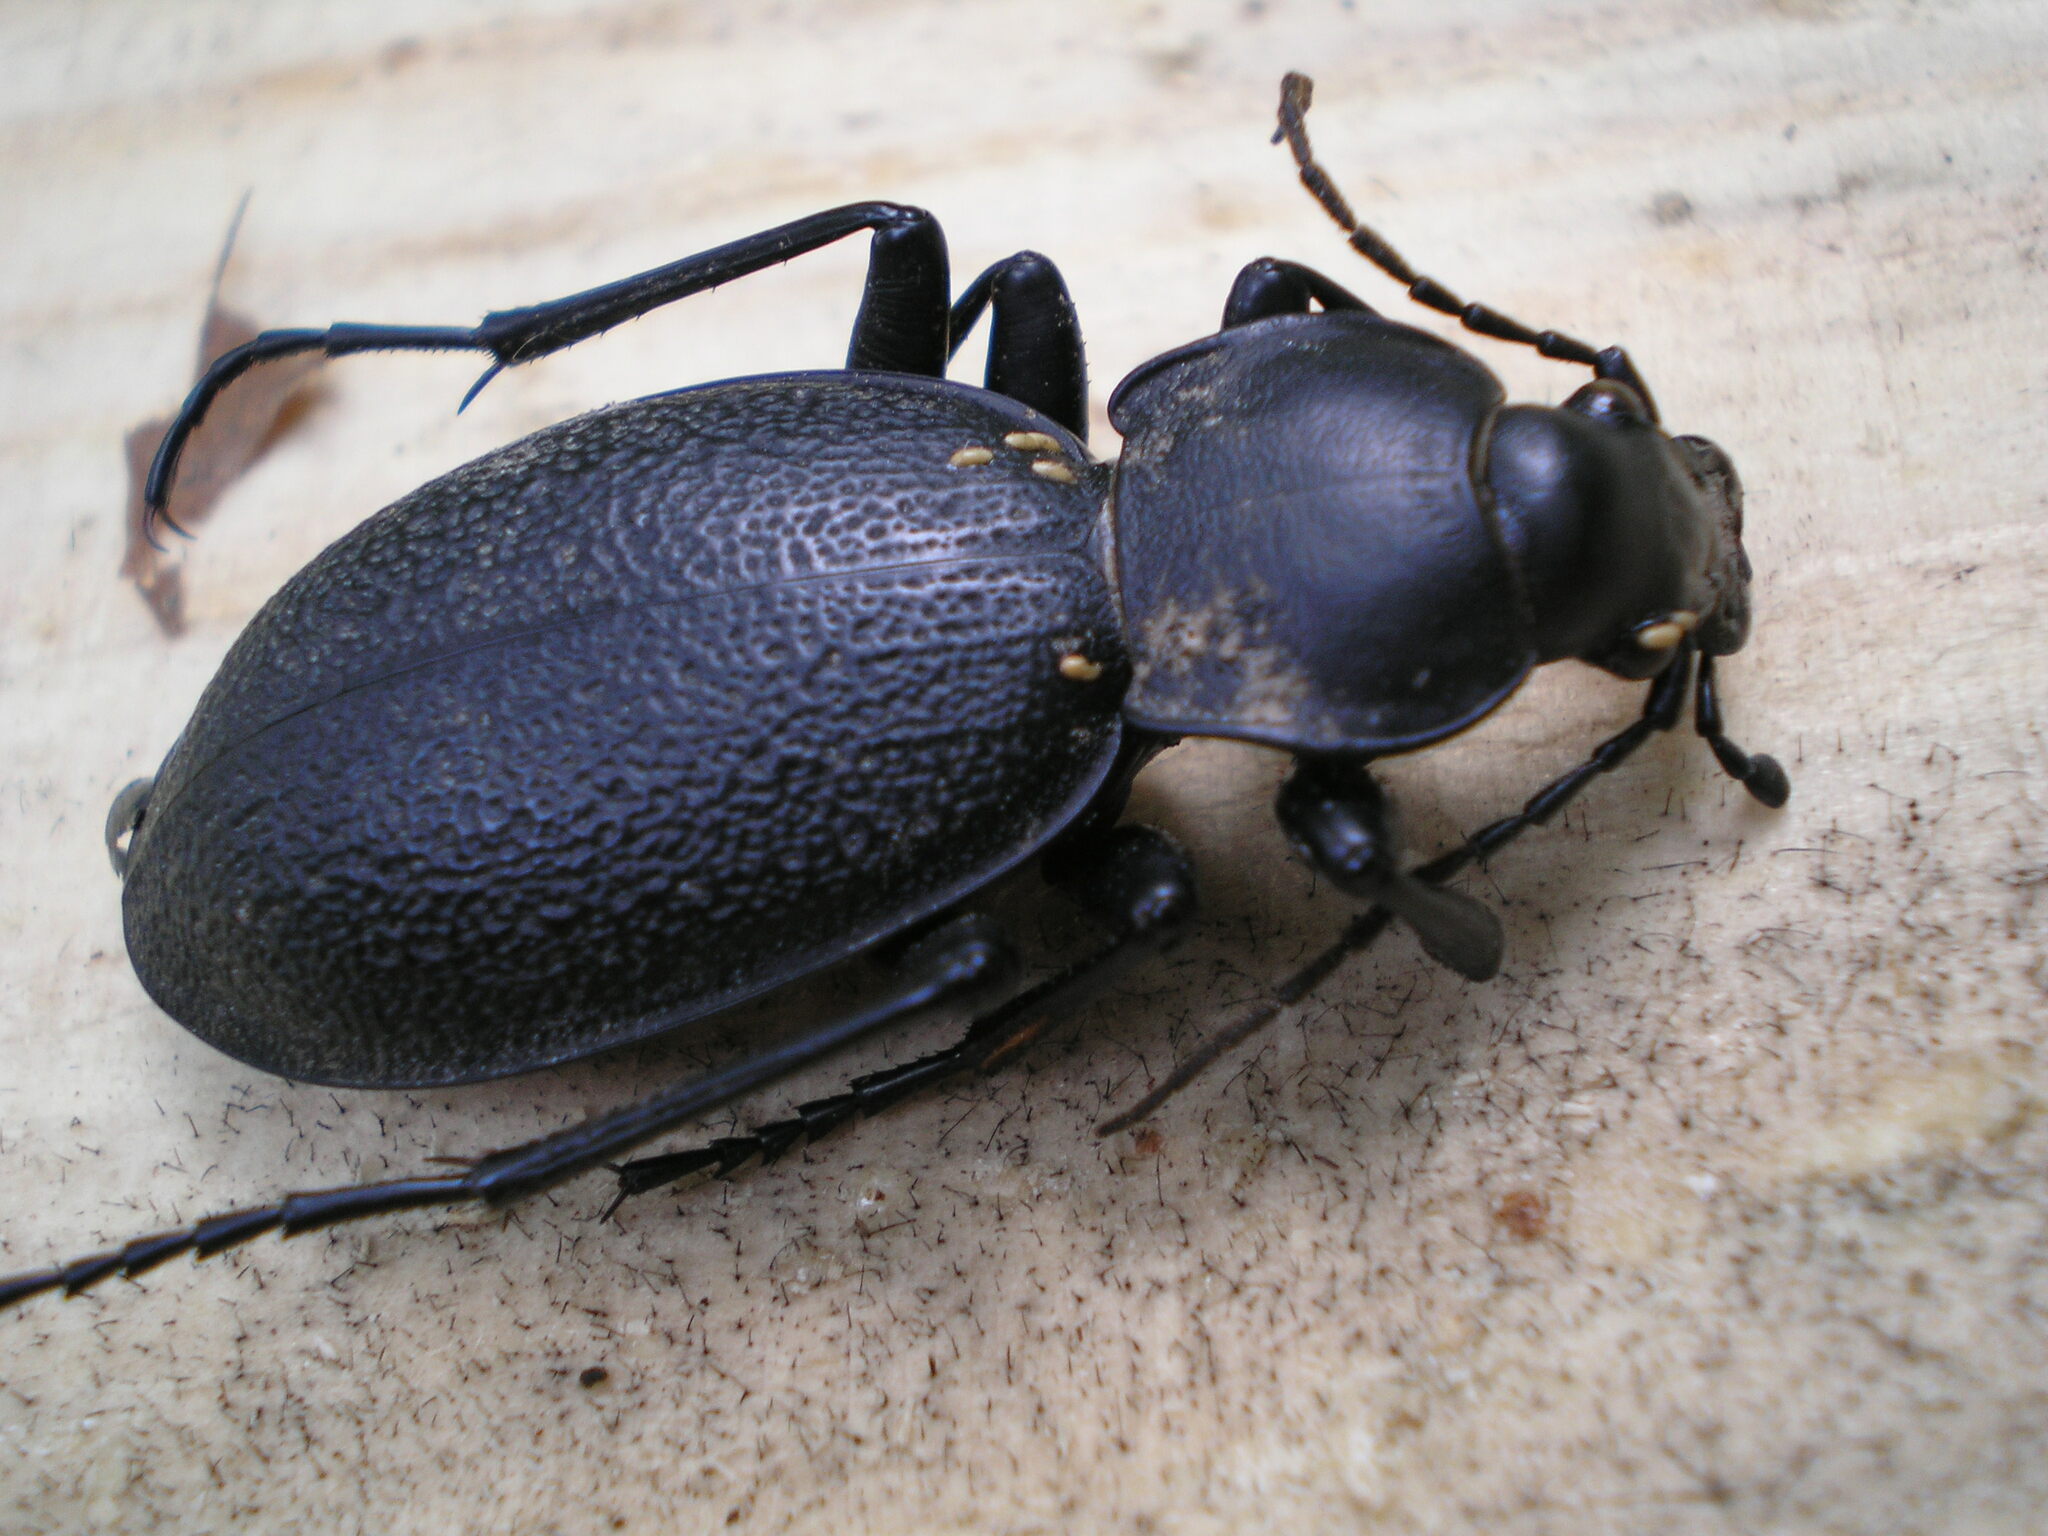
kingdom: Animalia
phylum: Arthropoda
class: Insecta
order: Coleoptera
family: Carabidae
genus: Carabus
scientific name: Carabus coriaceus
